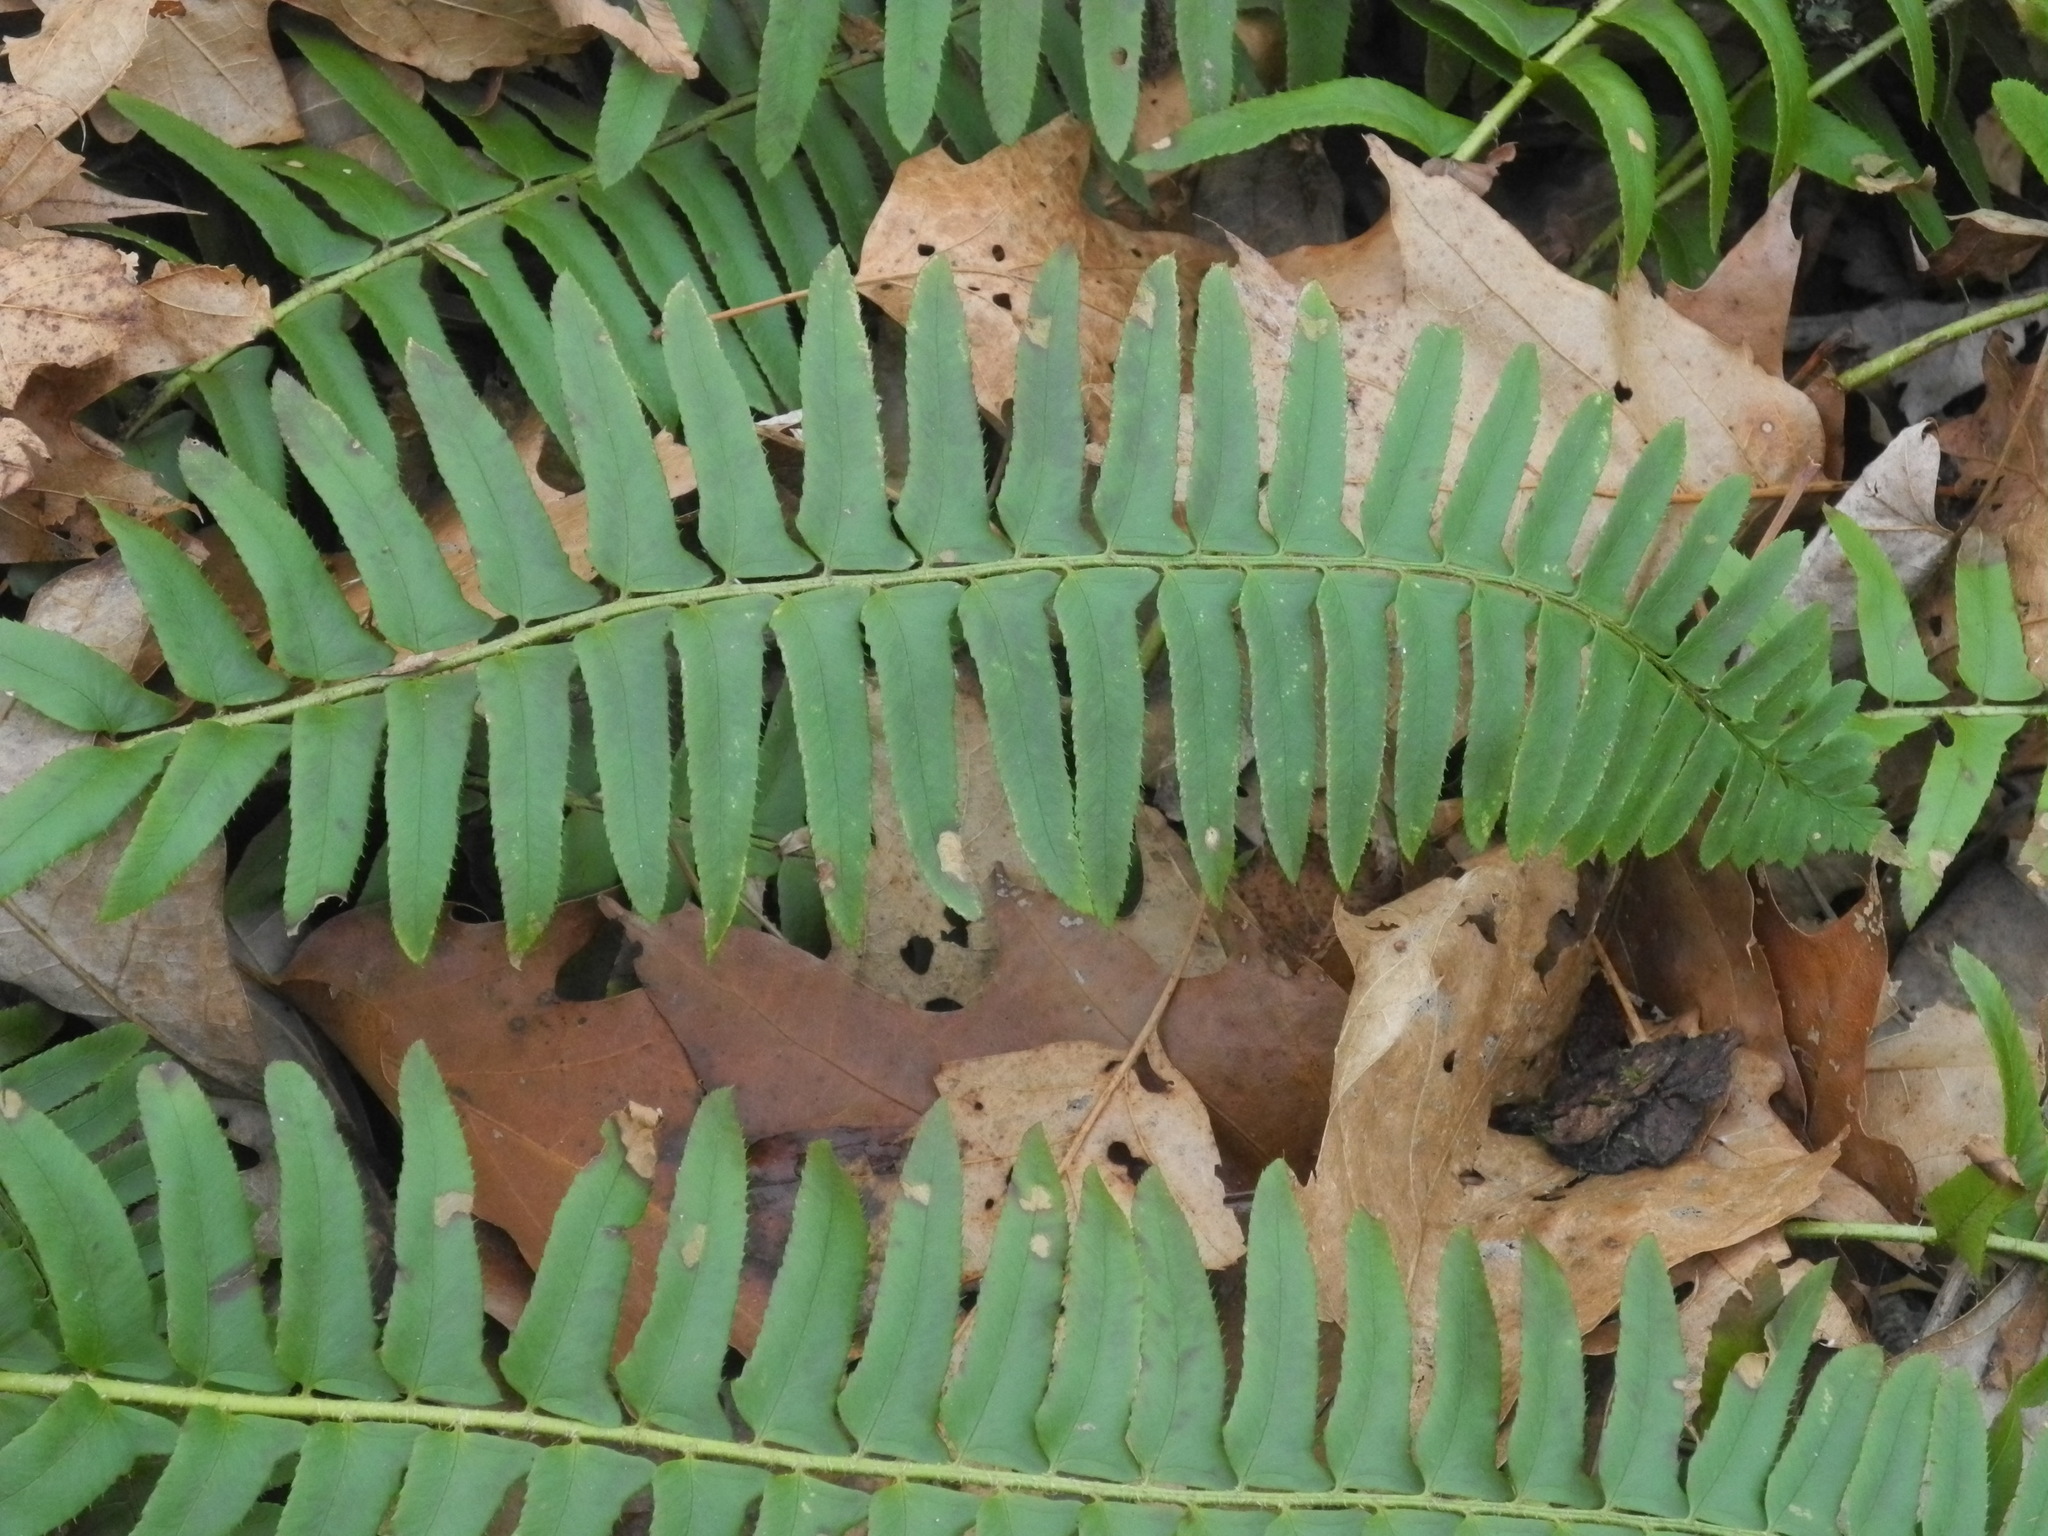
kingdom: Plantae
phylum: Tracheophyta
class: Polypodiopsida
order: Polypodiales
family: Dryopteridaceae
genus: Polystichum
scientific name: Polystichum acrostichoides
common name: Christmas fern
